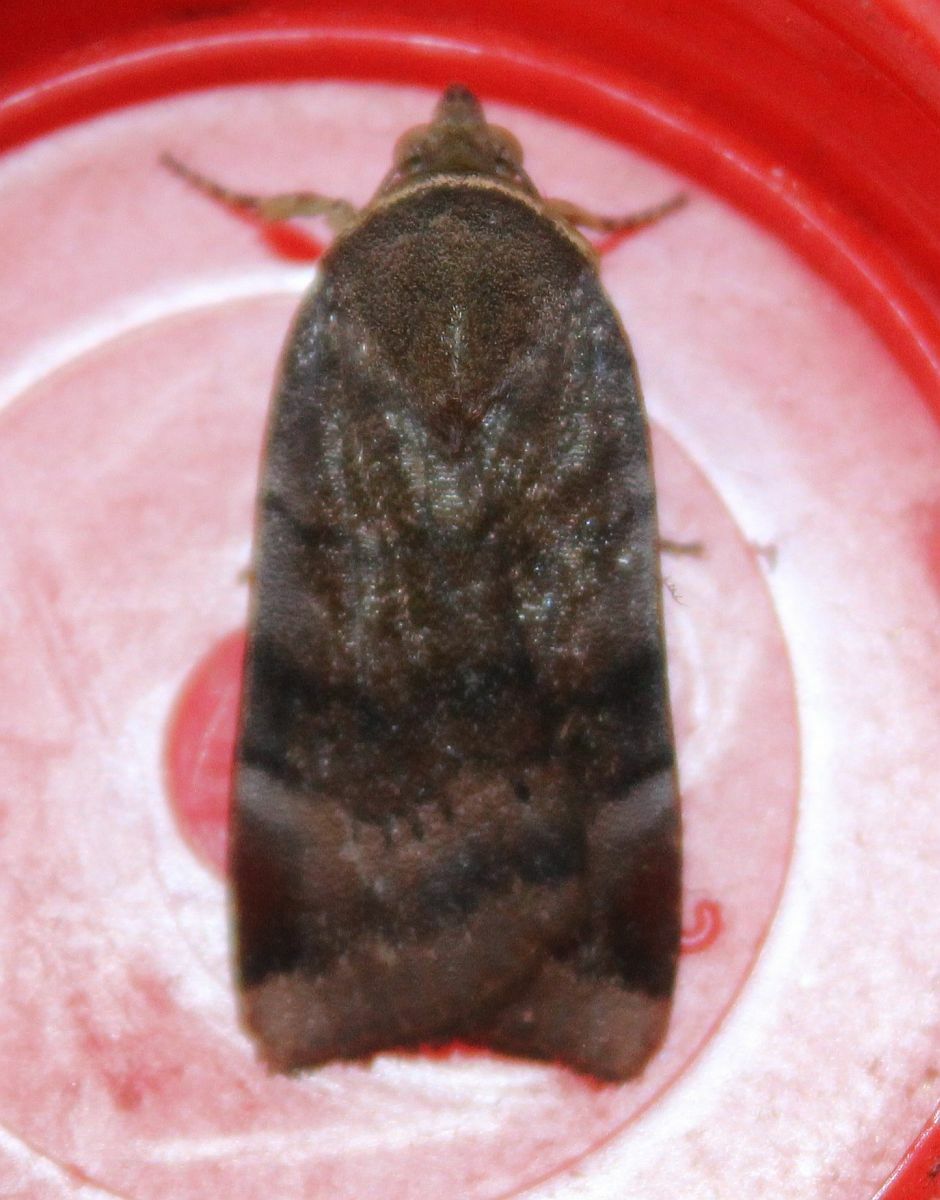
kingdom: Animalia
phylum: Arthropoda
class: Insecta
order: Lepidoptera
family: Noctuidae
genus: Noctua
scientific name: Noctua janthe
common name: Lesser broad-bordered yellow underwing
